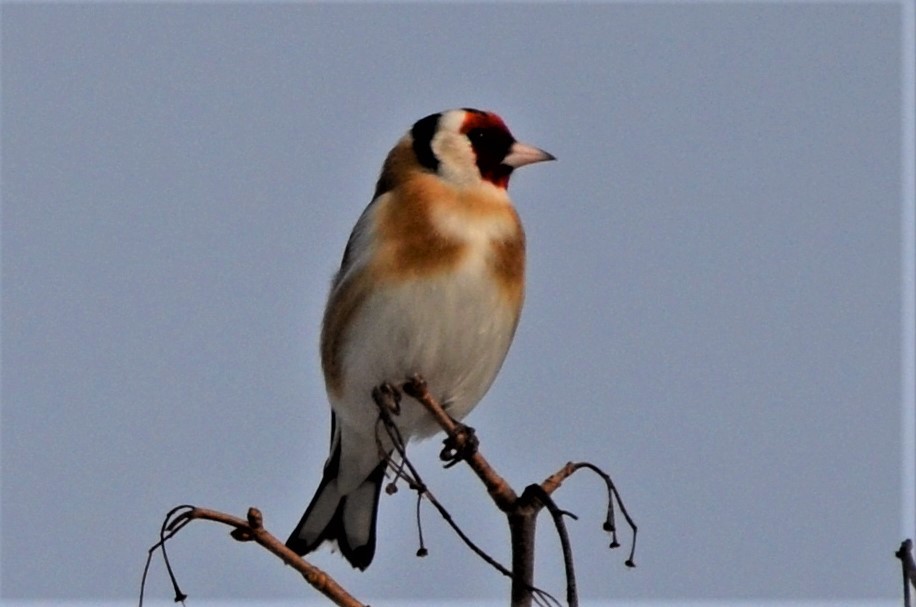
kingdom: Animalia
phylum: Chordata
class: Aves
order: Passeriformes
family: Fringillidae
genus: Carduelis
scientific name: Carduelis carduelis
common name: European goldfinch
